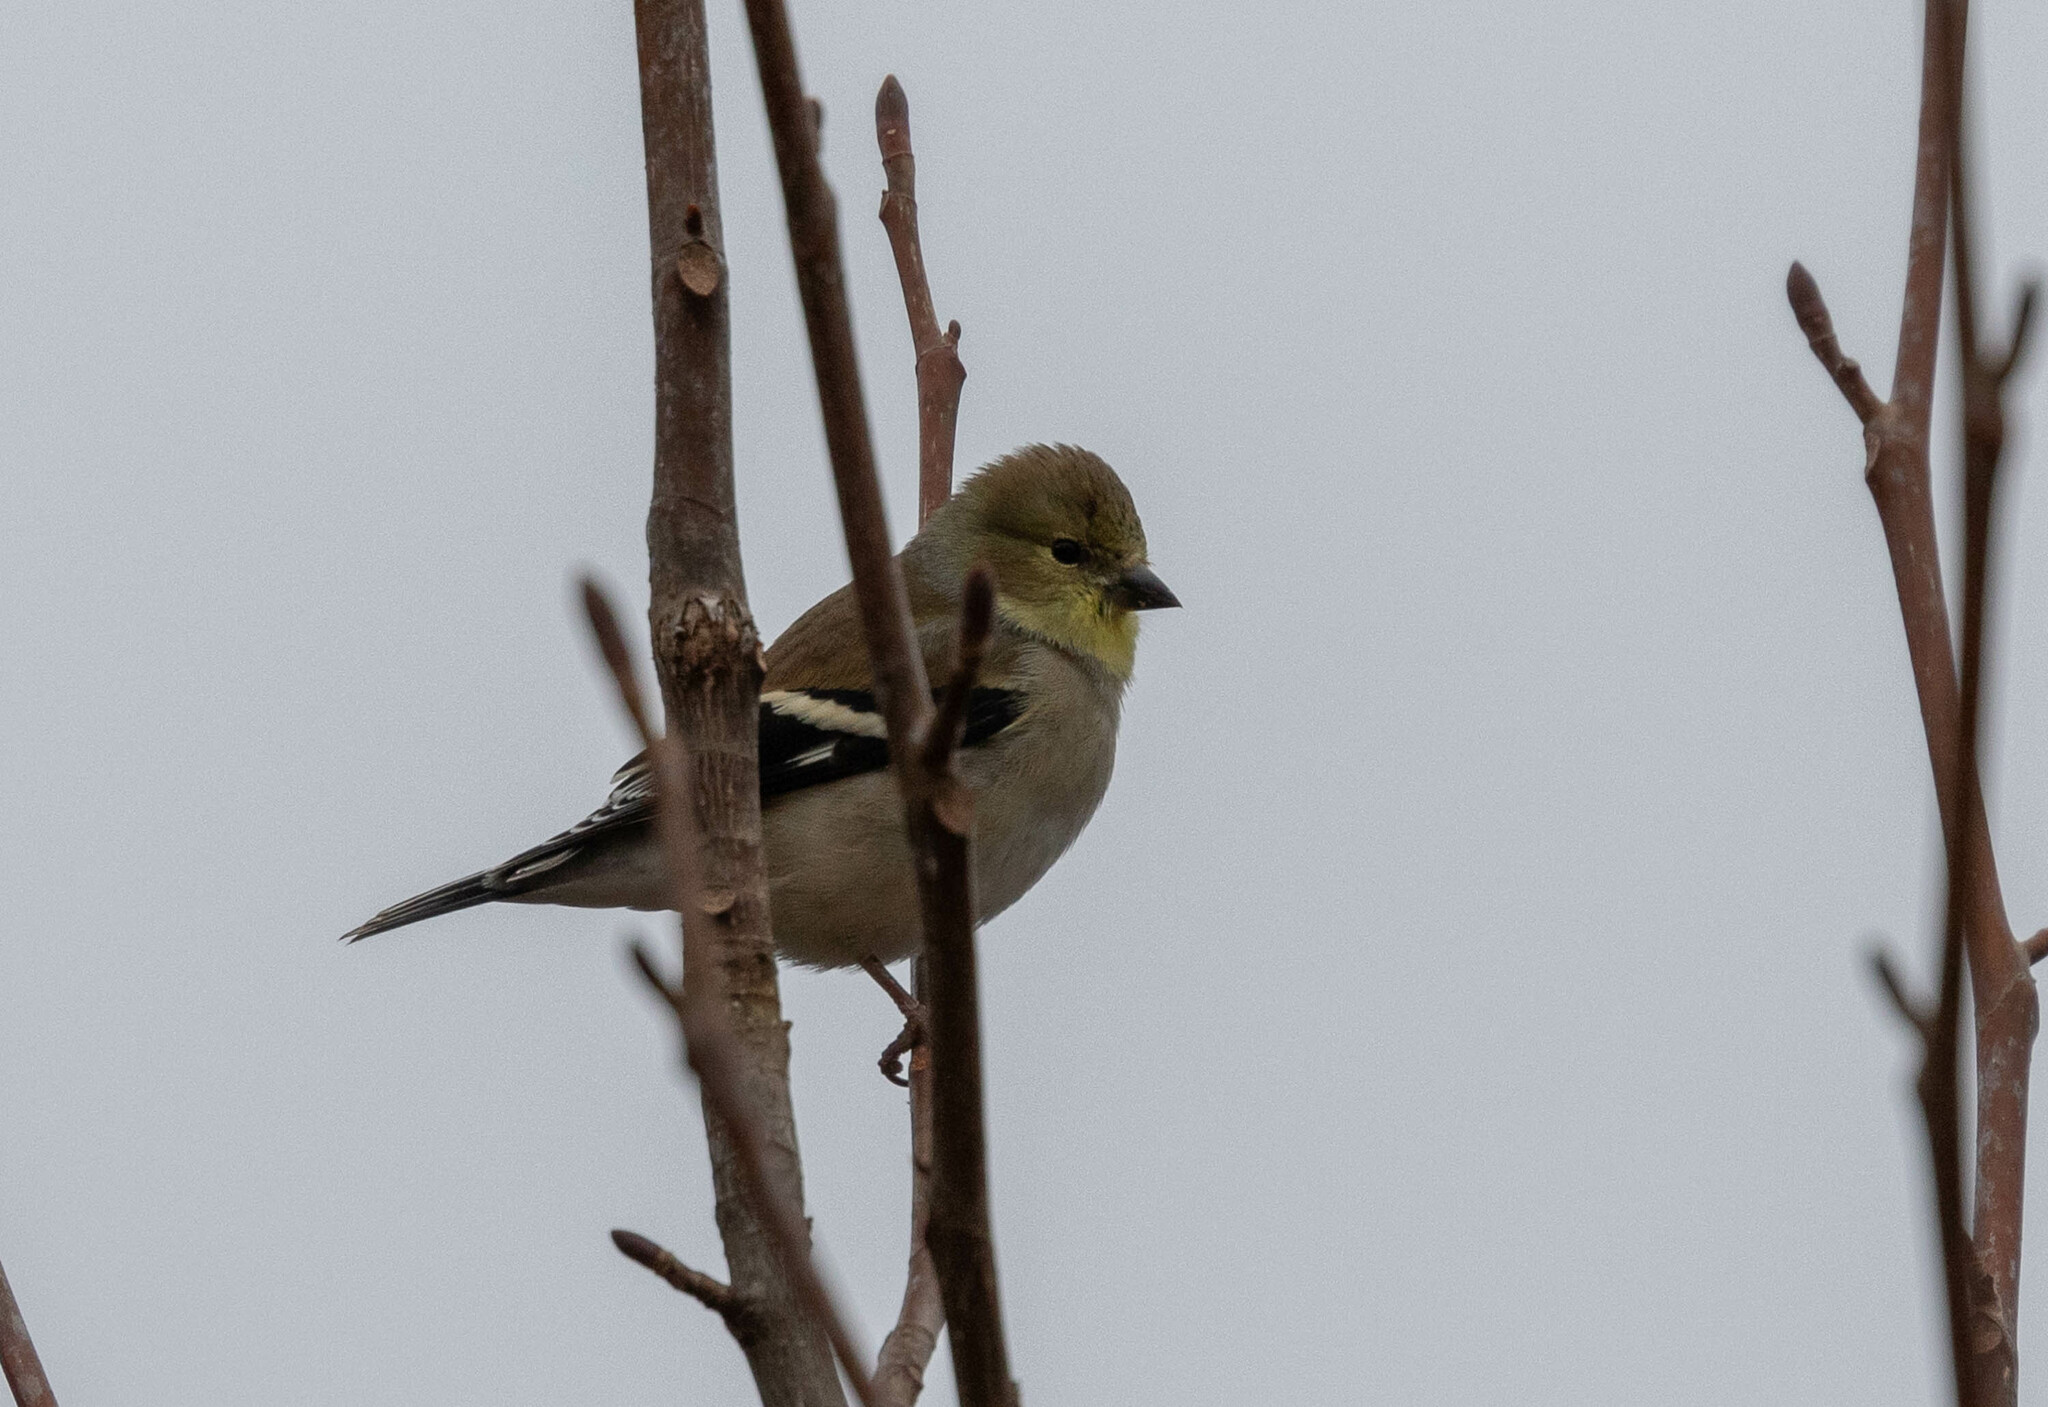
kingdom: Animalia
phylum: Chordata
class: Aves
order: Passeriformes
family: Fringillidae
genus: Spinus
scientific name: Spinus tristis
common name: American goldfinch
